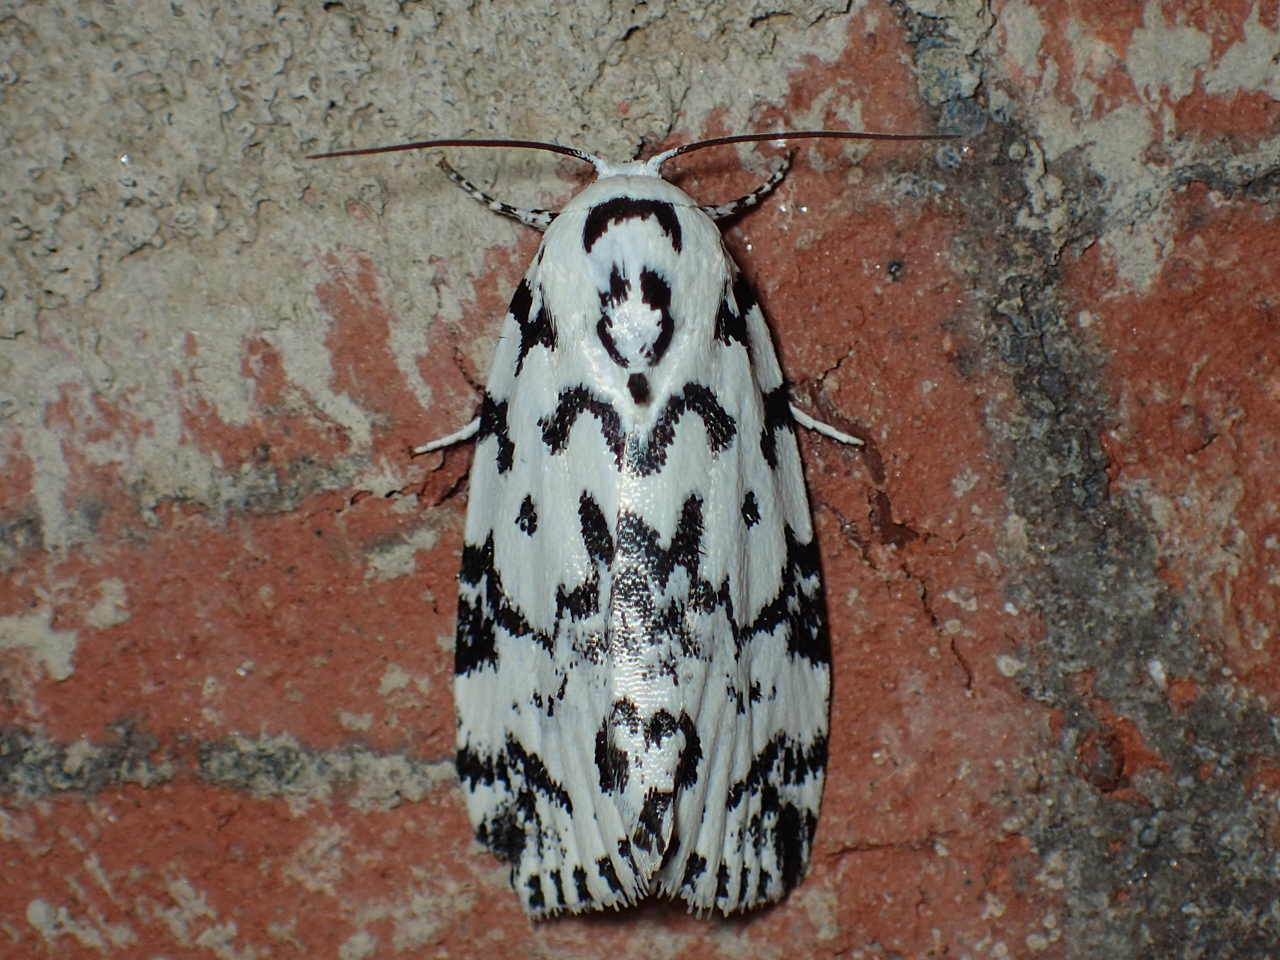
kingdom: Animalia
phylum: Arthropoda
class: Insecta
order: Lepidoptera
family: Noctuidae
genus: Polygrammate
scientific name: Polygrammate hebraeicum
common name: Hebrew moth
